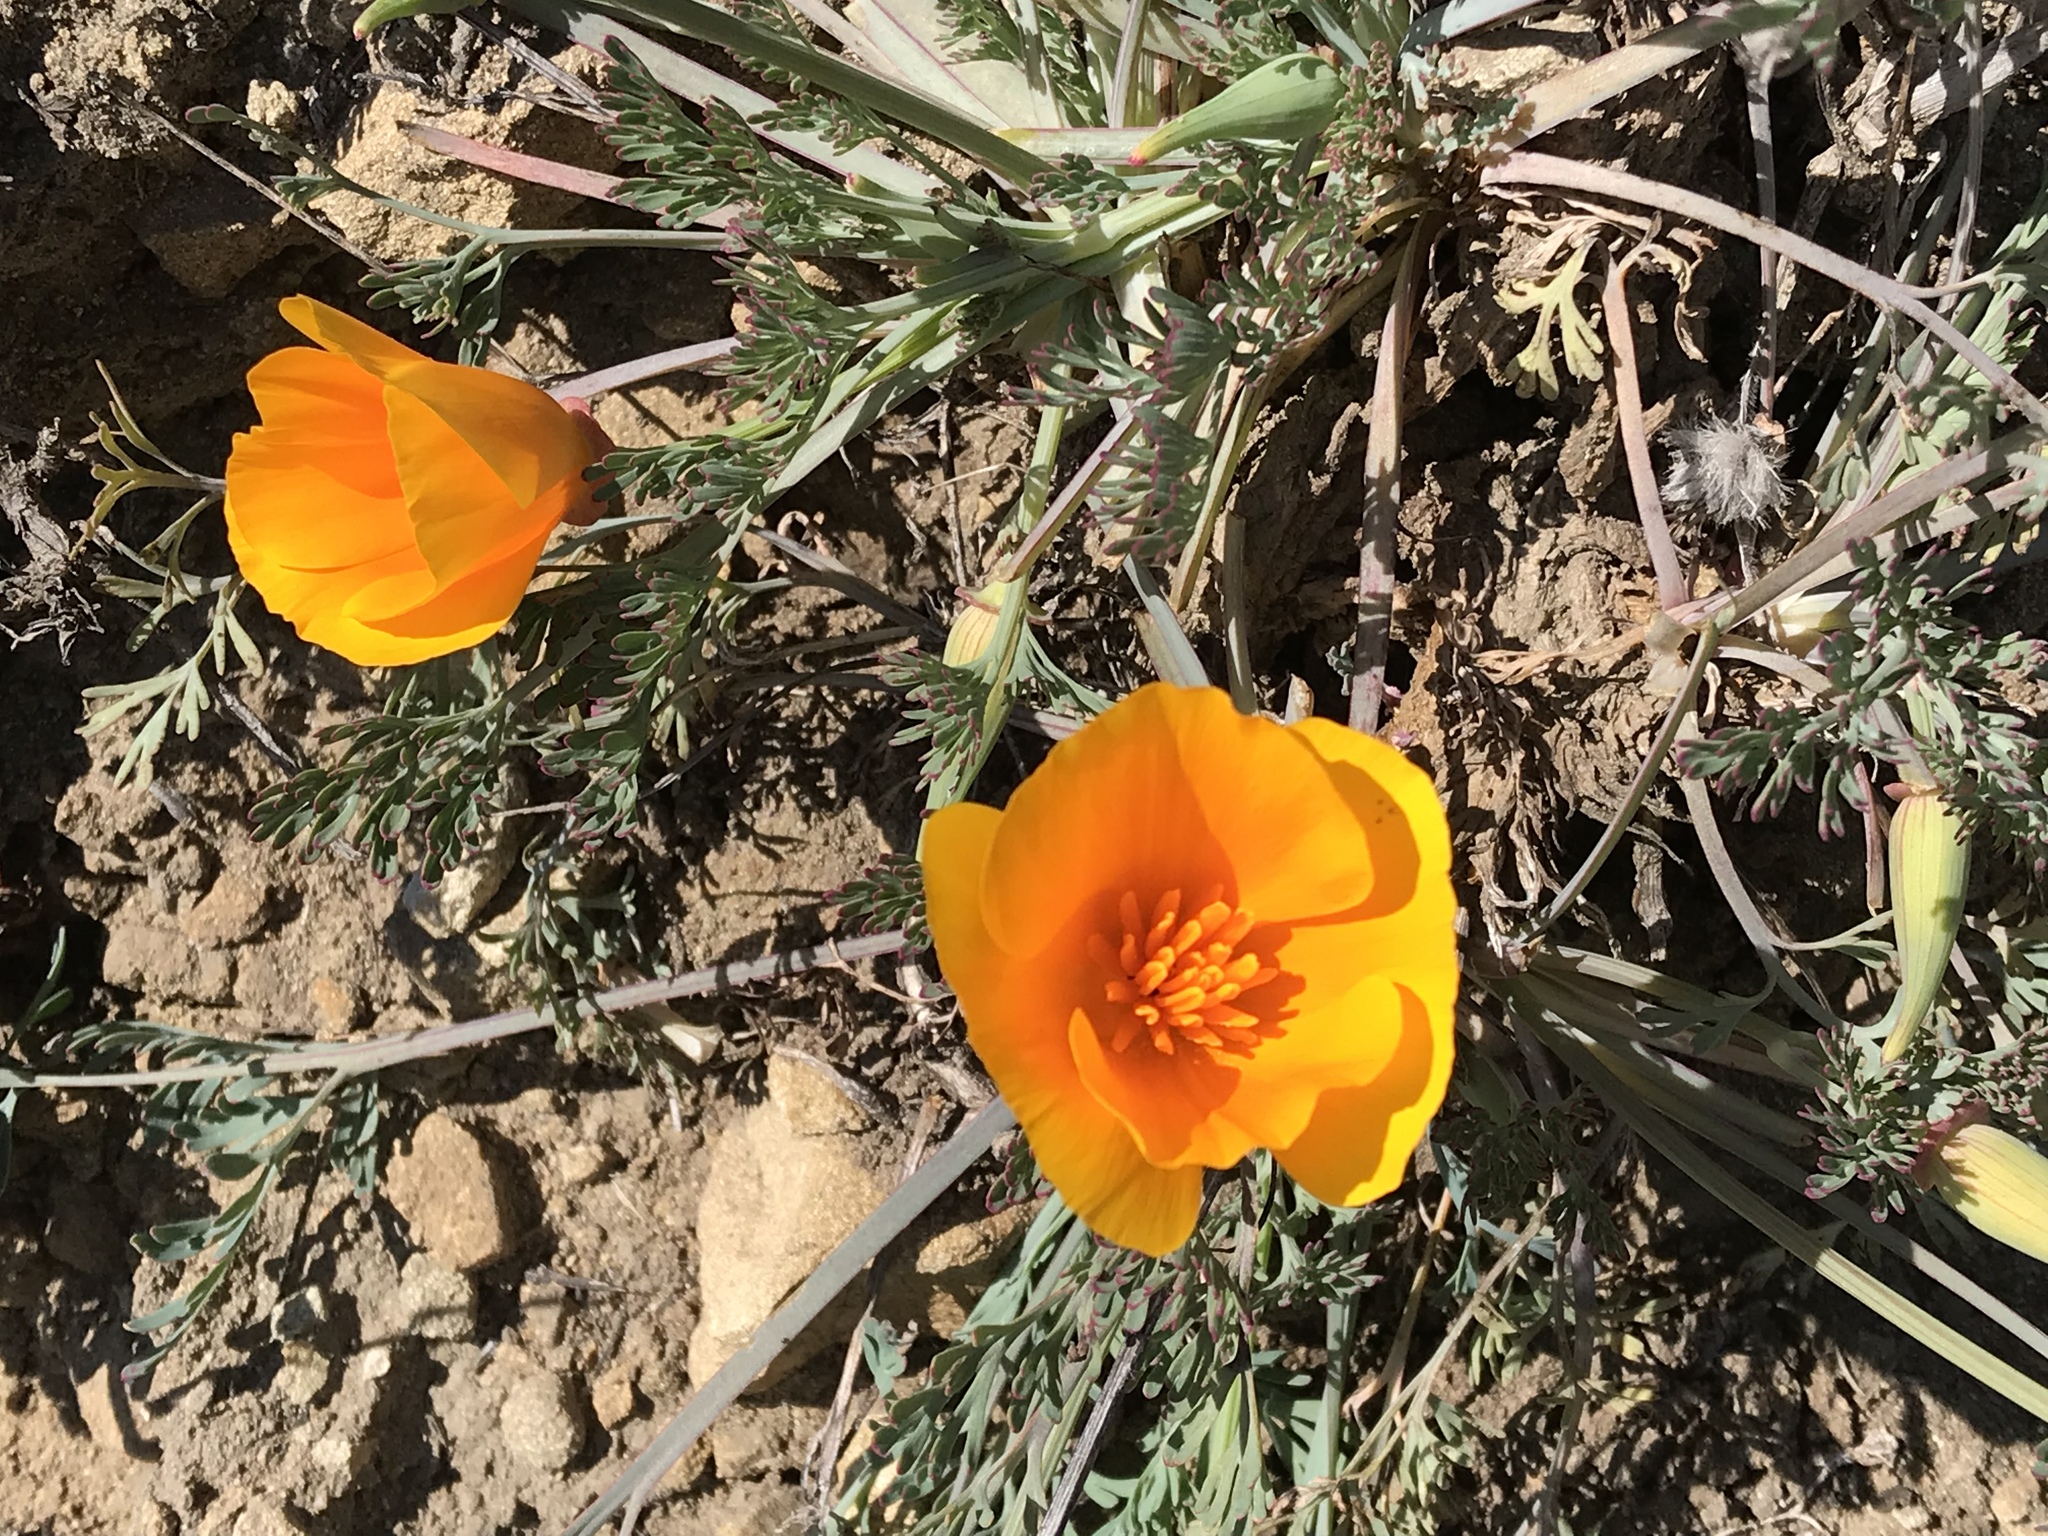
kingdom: Plantae
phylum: Tracheophyta
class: Magnoliopsida
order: Ranunculales
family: Papaveraceae
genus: Eschscholzia
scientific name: Eschscholzia californica
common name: California poppy
